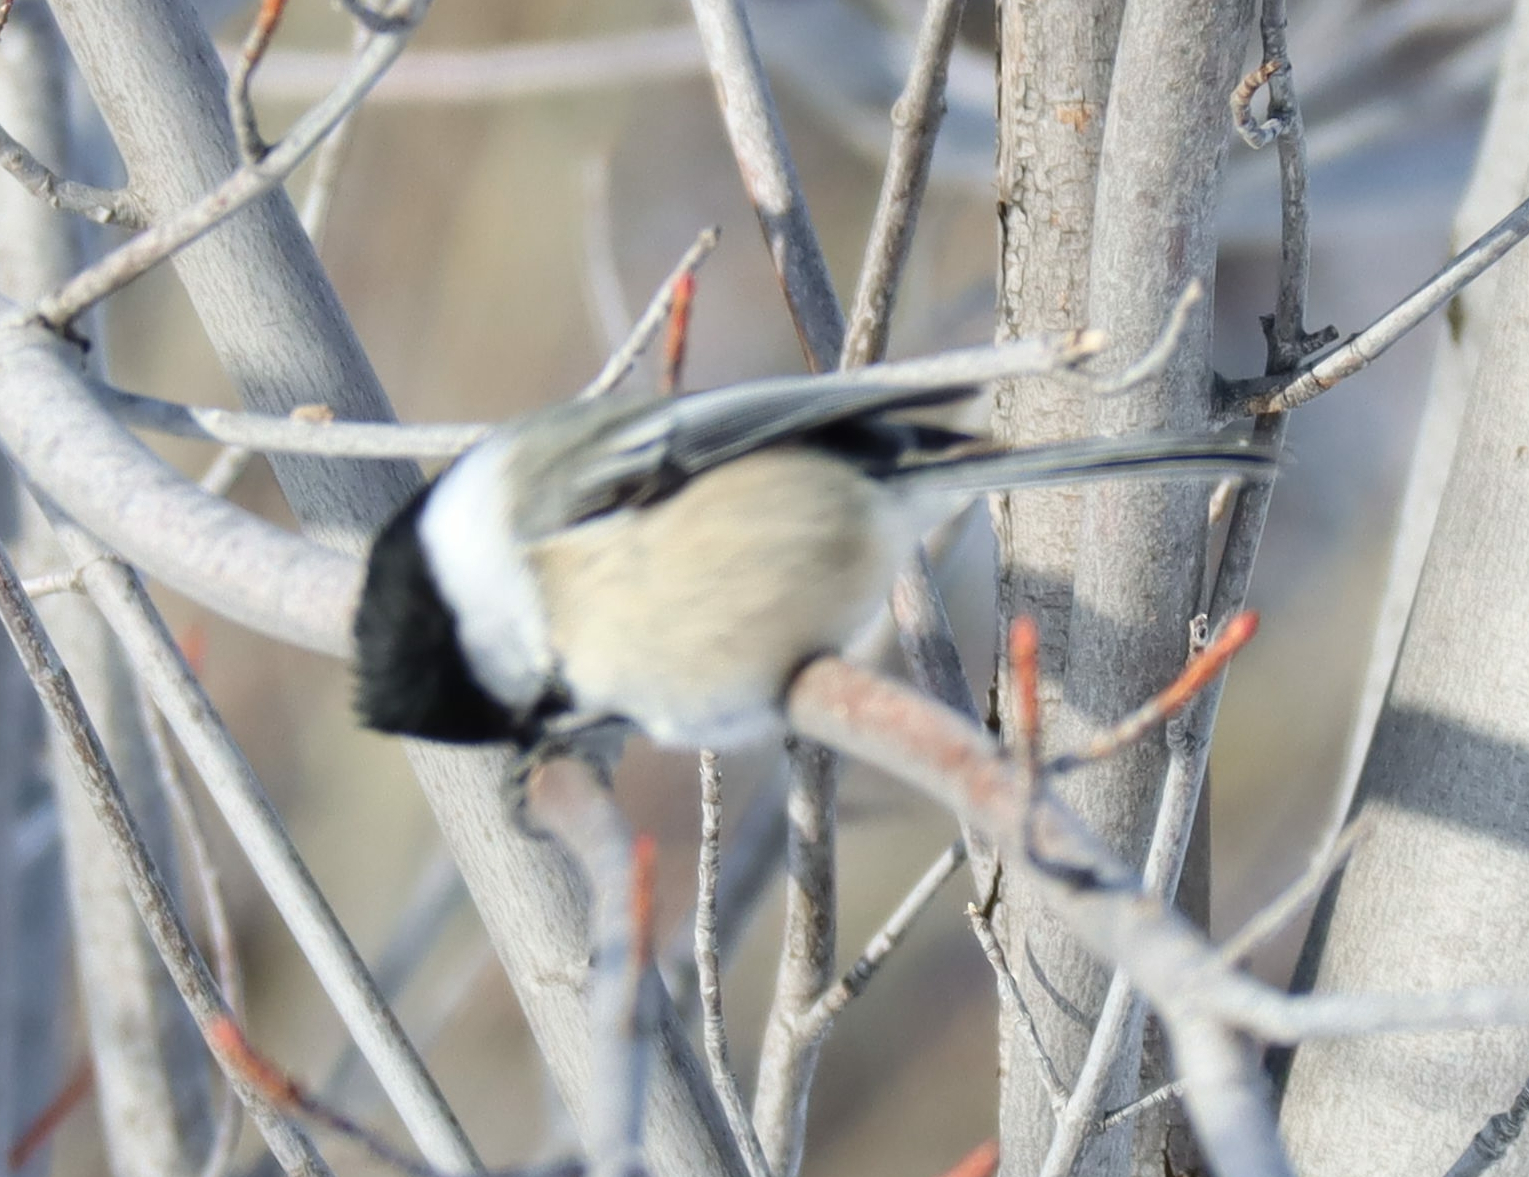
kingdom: Animalia
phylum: Chordata
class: Aves
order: Passeriformes
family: Paridae
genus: Poecile
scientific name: Poecile atricapillus
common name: Black-capped chickadee
